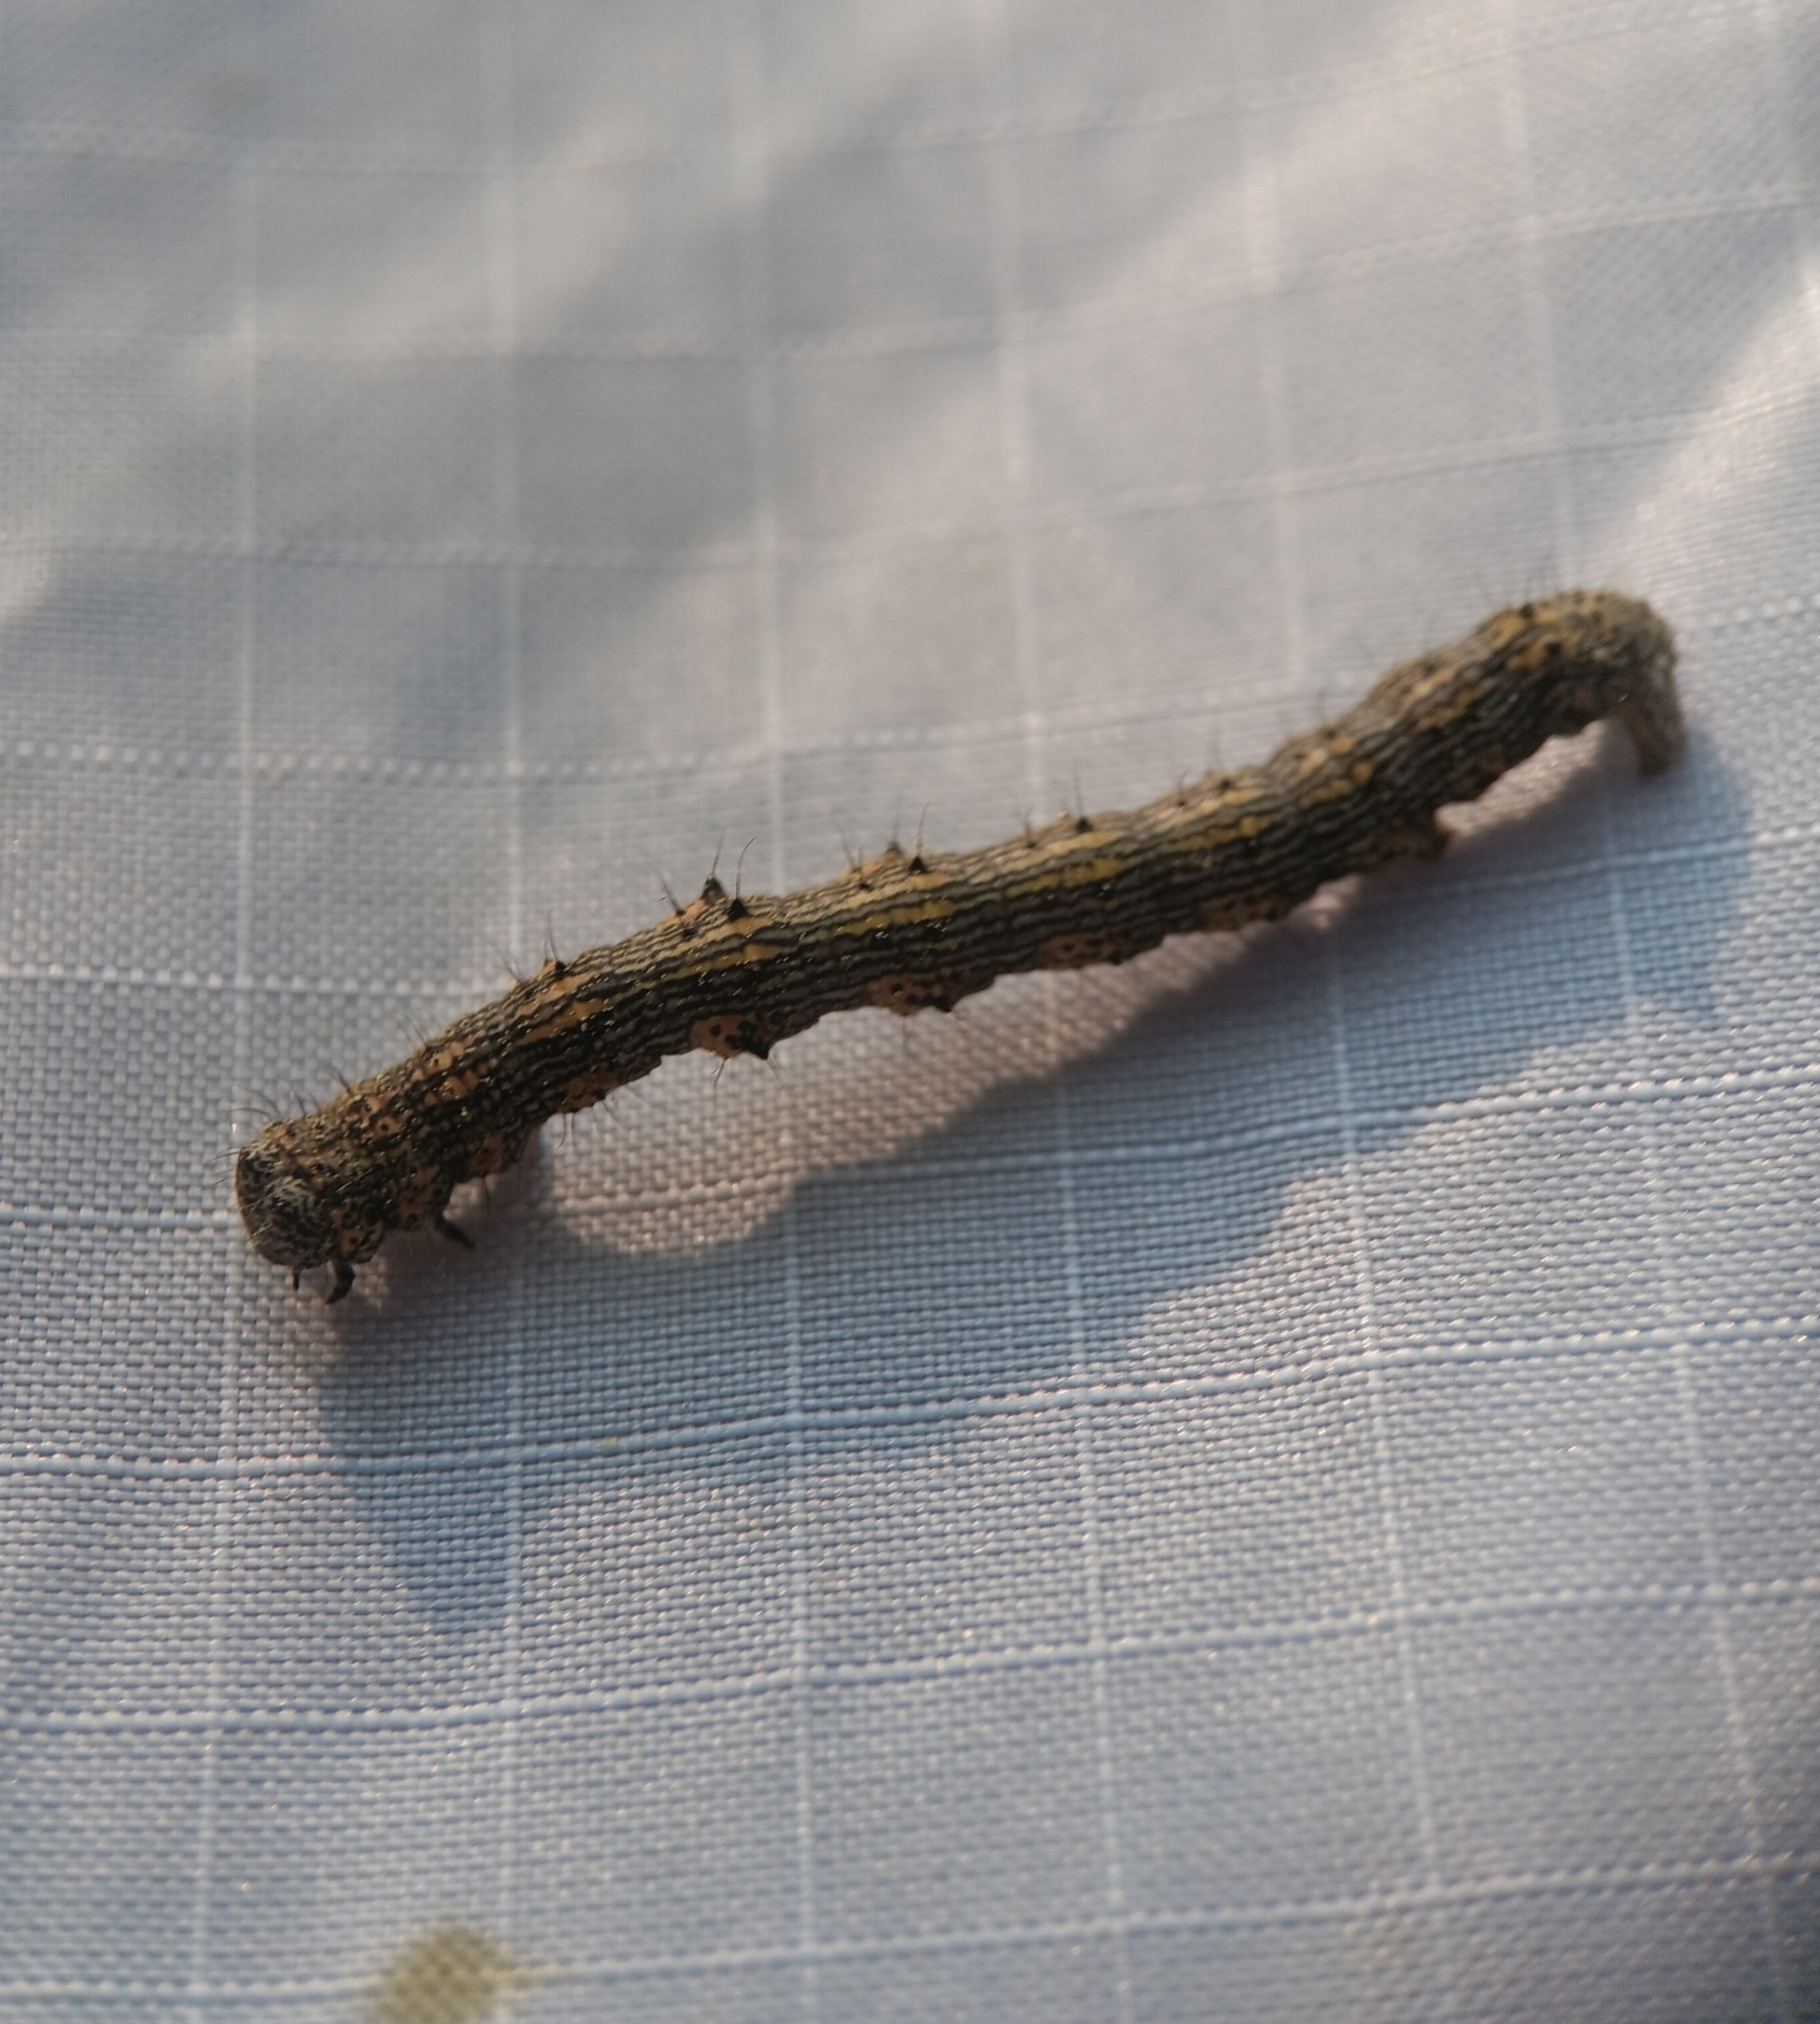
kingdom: Animalia
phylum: Arthropoda
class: Insecta
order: Lepidoptera
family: Geometridae
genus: Phigalia
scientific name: Phigalia titea
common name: Spiny looper
